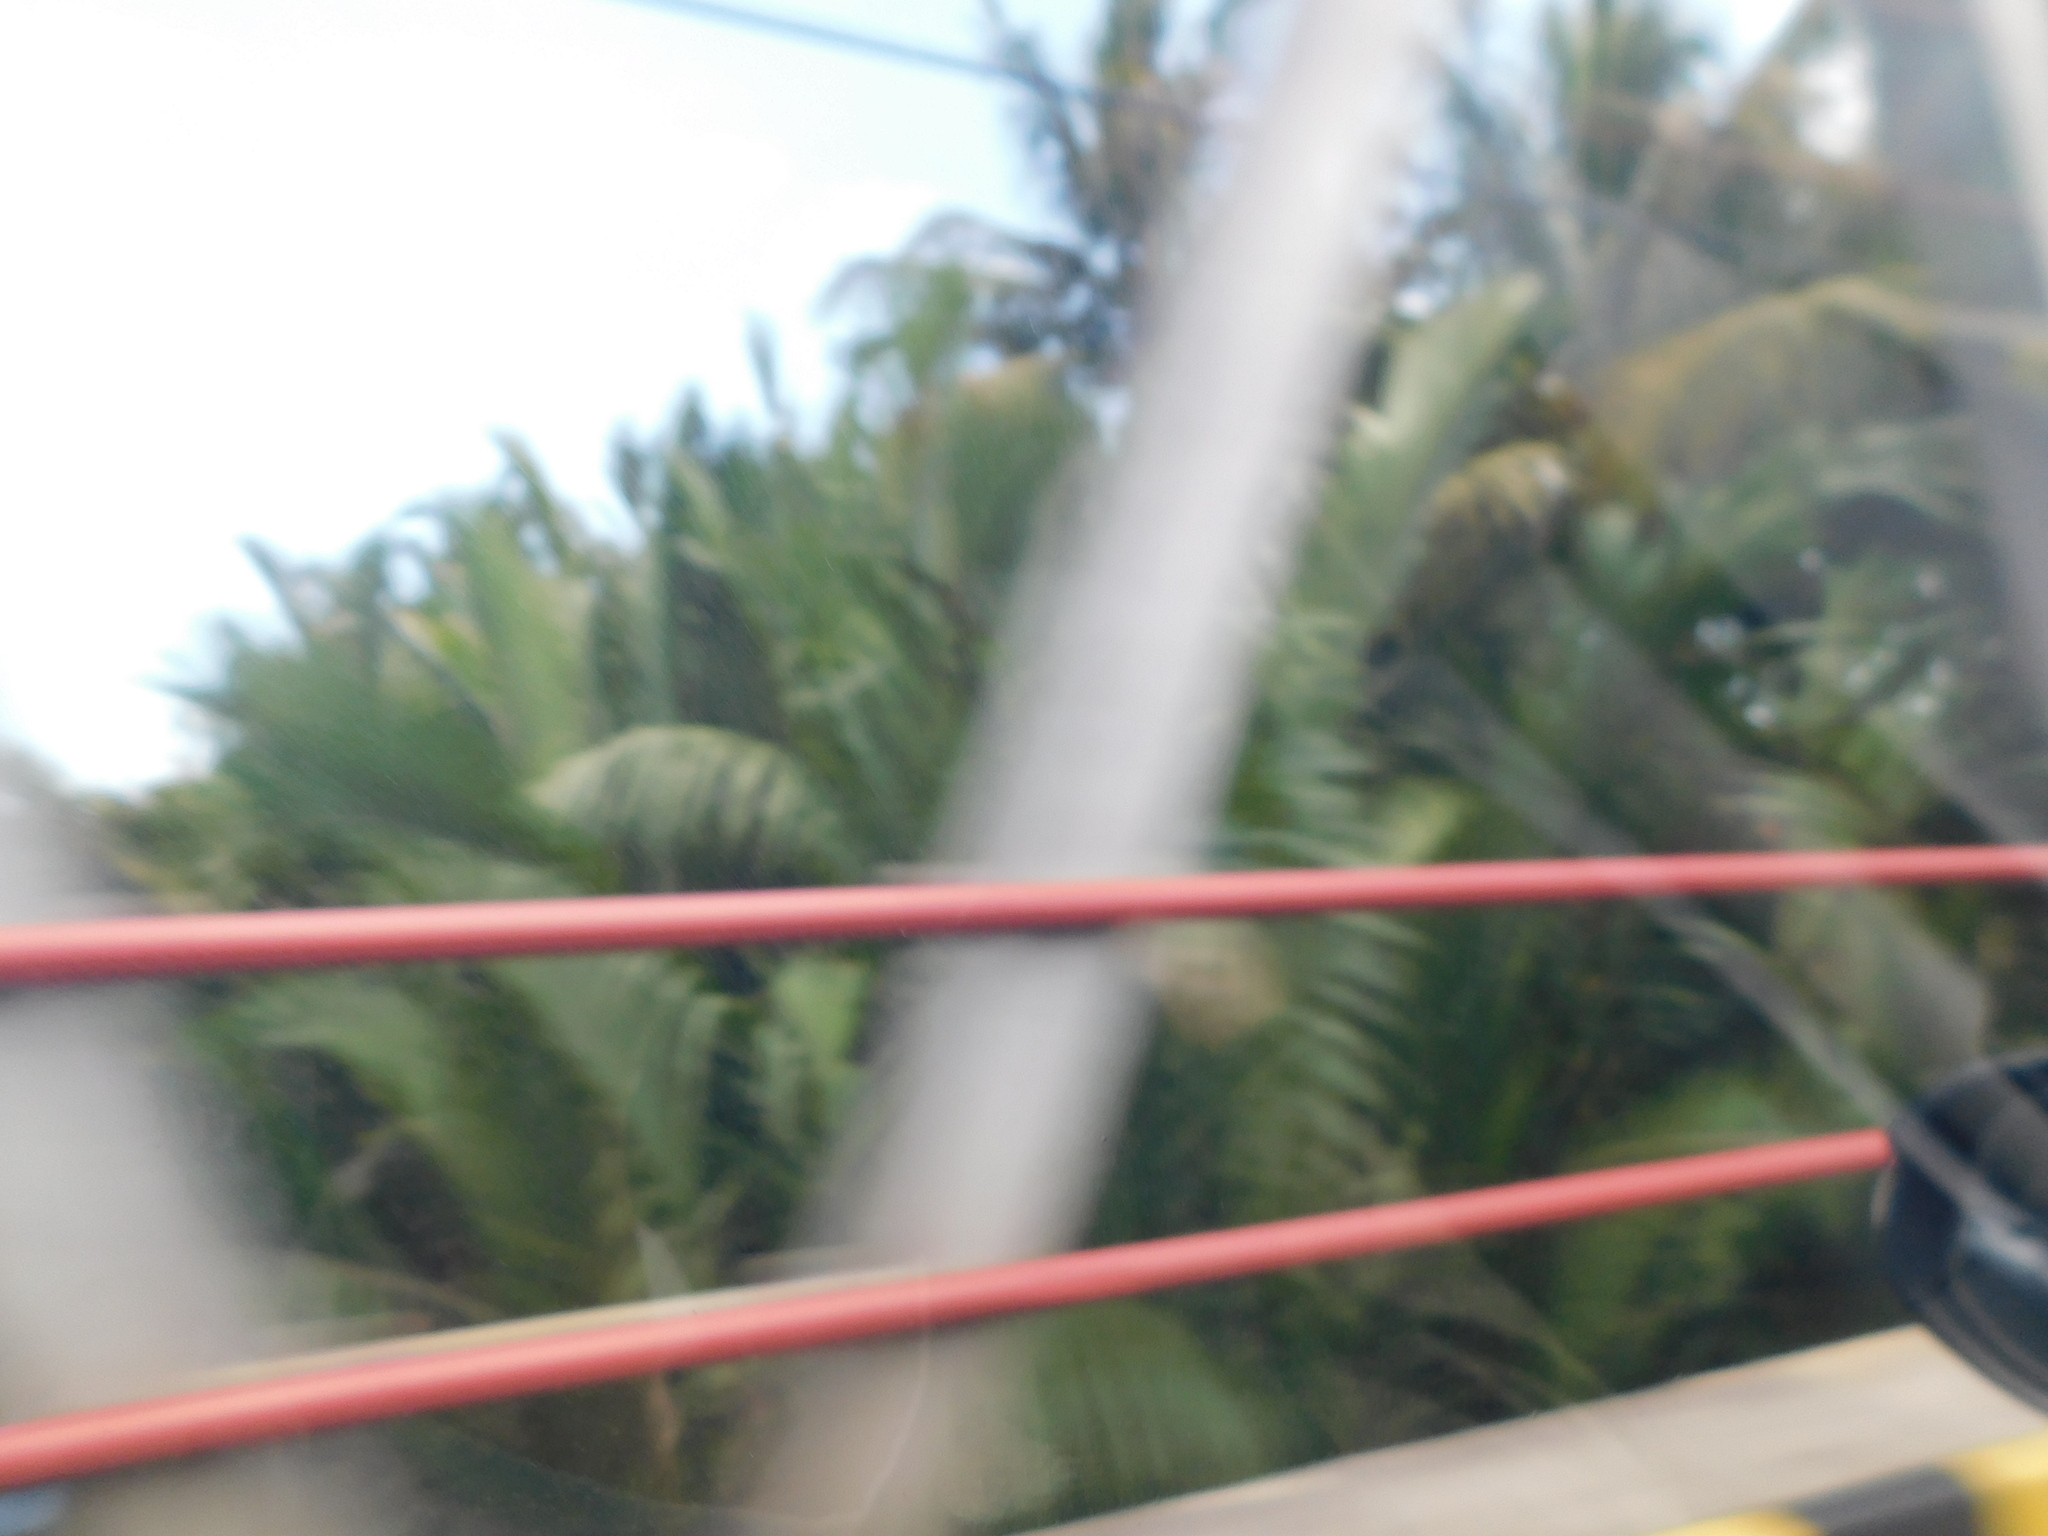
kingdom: Plantae
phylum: Tracheophyta
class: Liliopsida
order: Arecales
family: Arecaceae
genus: Nypa
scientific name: Nypa fruticans
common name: Mangrove palm
